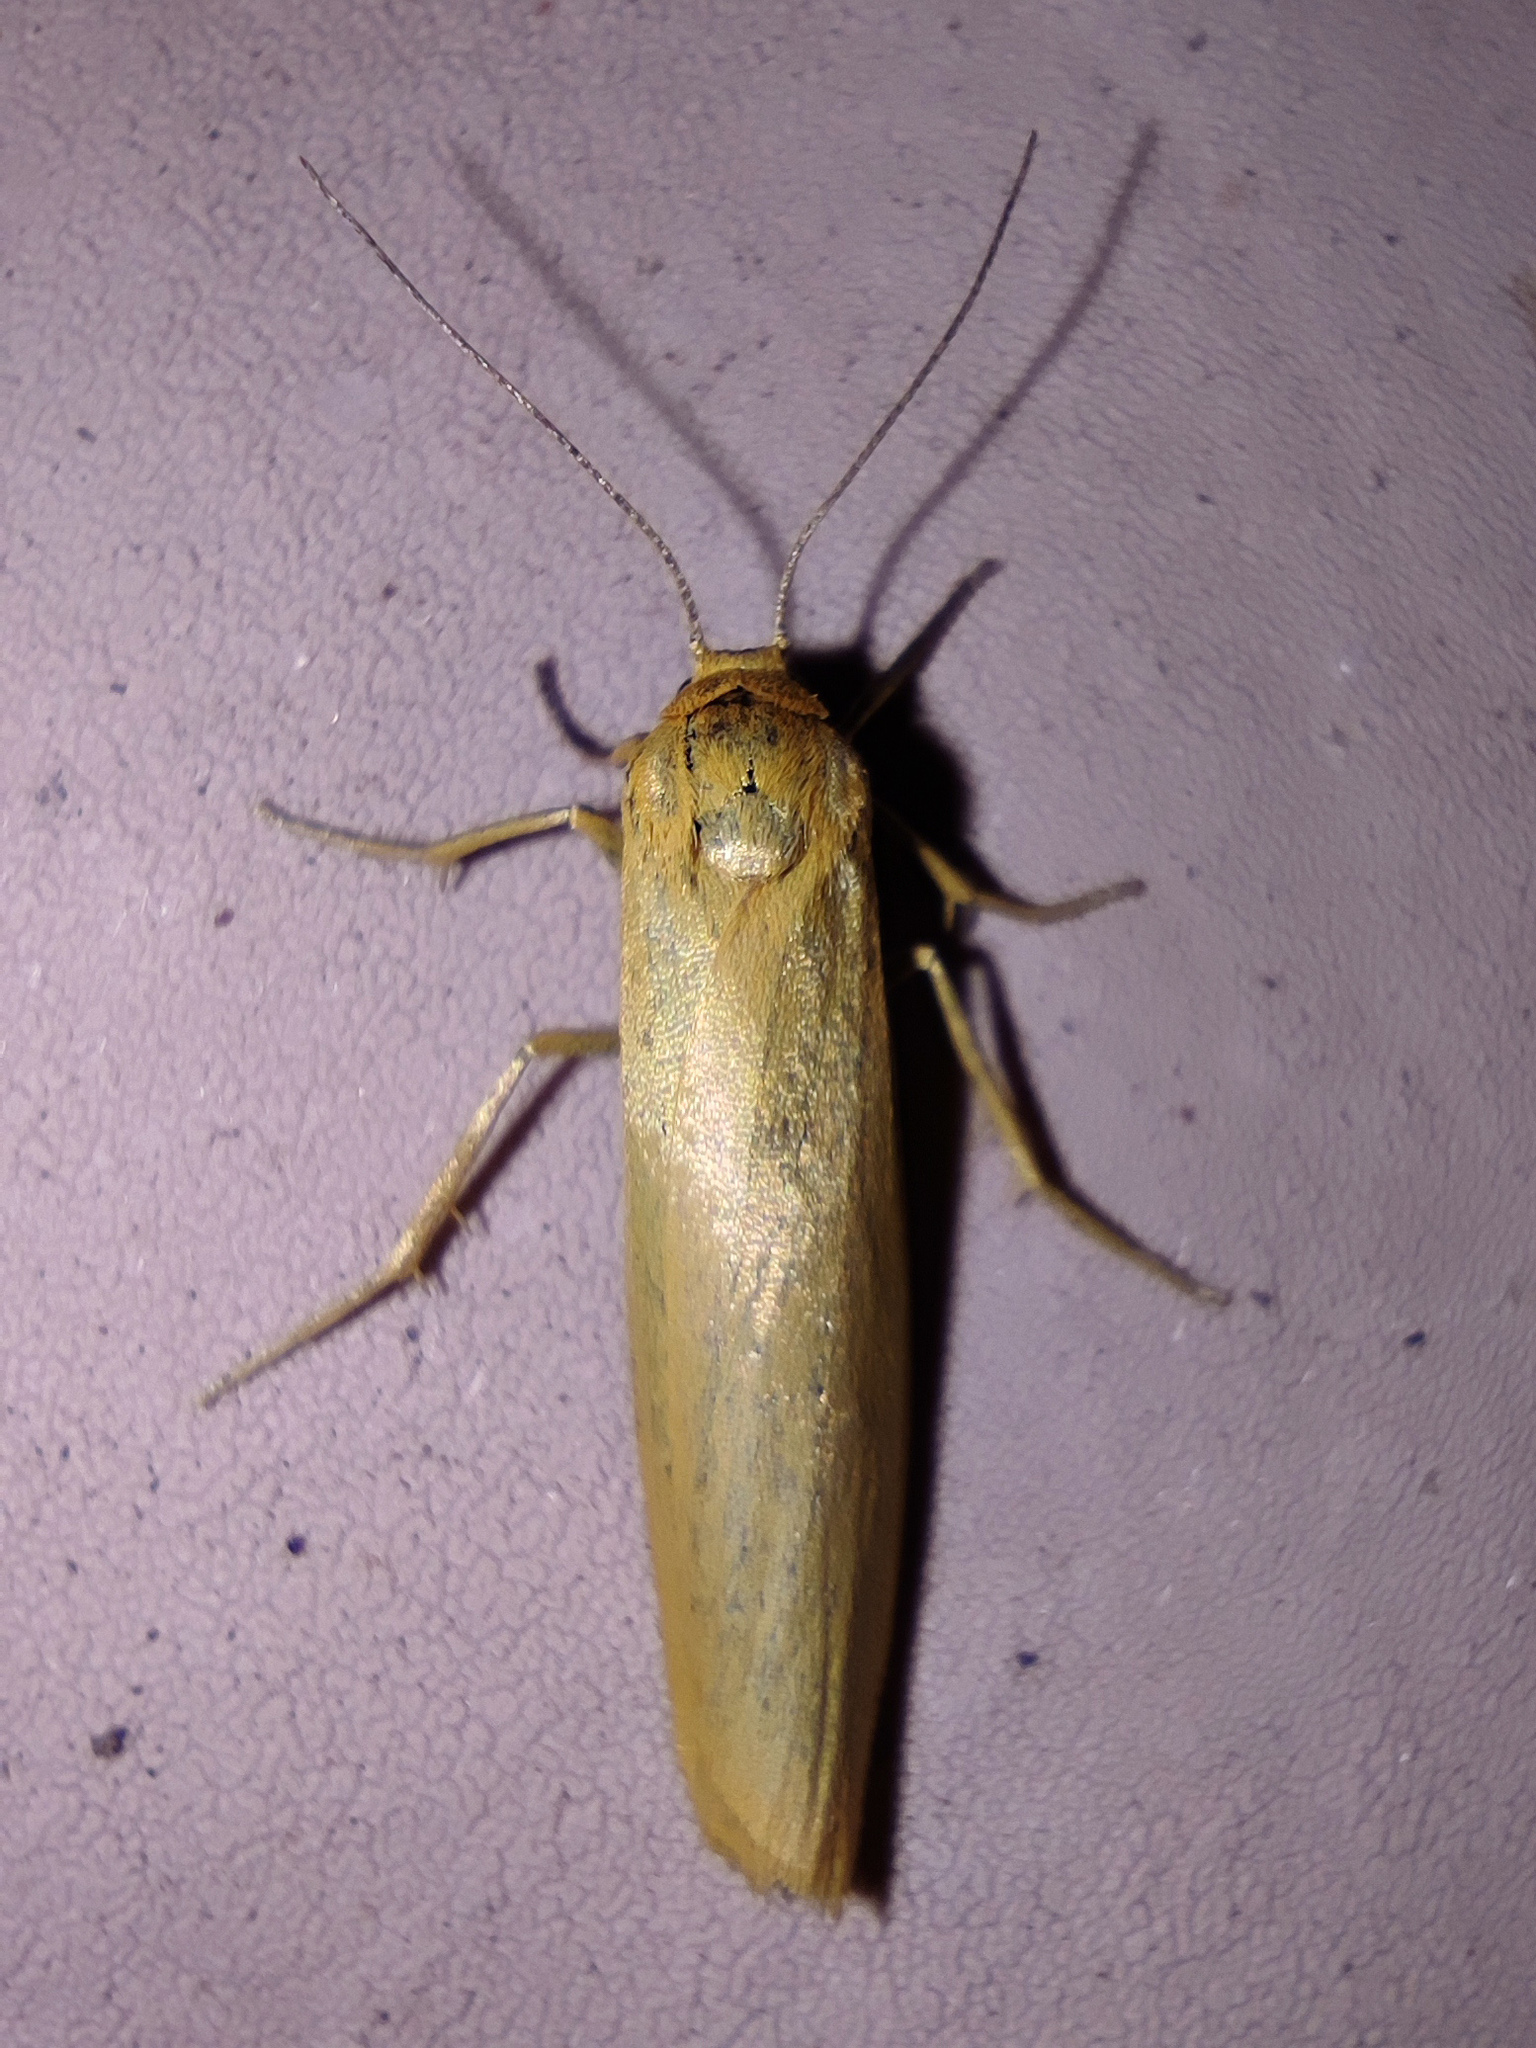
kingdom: Animalia
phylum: Arthropoda
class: Insecta
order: Lepidoptera
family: Erebidae
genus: Indalia
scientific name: Indalia lutarella
